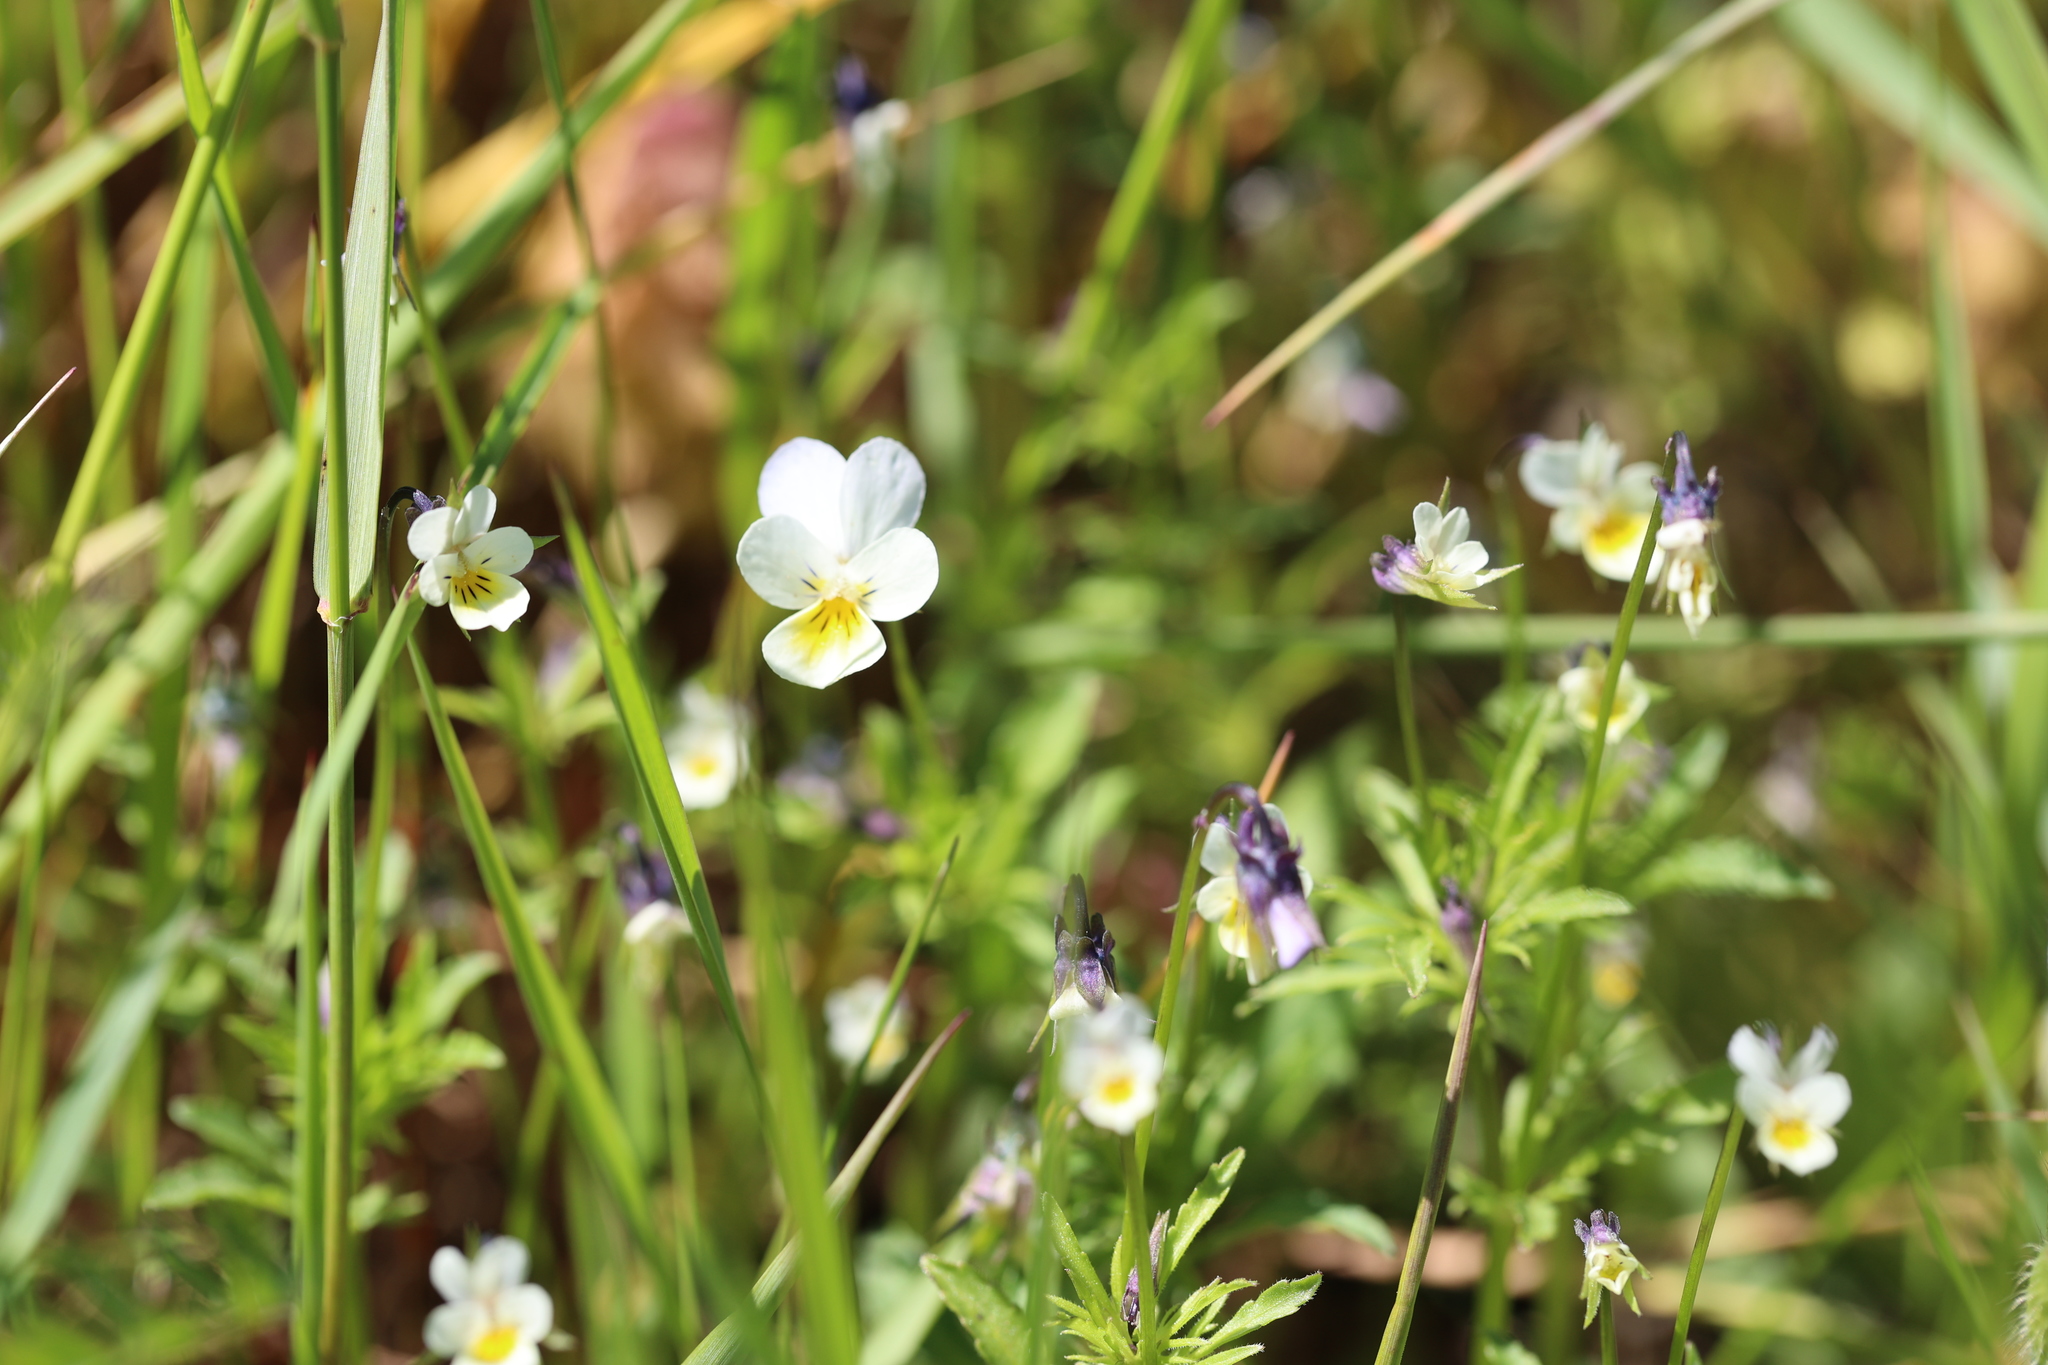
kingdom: Plantae
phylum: Tracheophyta
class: Magnoliopsida
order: Malpighiales
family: Violaceae
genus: Viola
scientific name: Viola arvensis
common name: Field pansy
